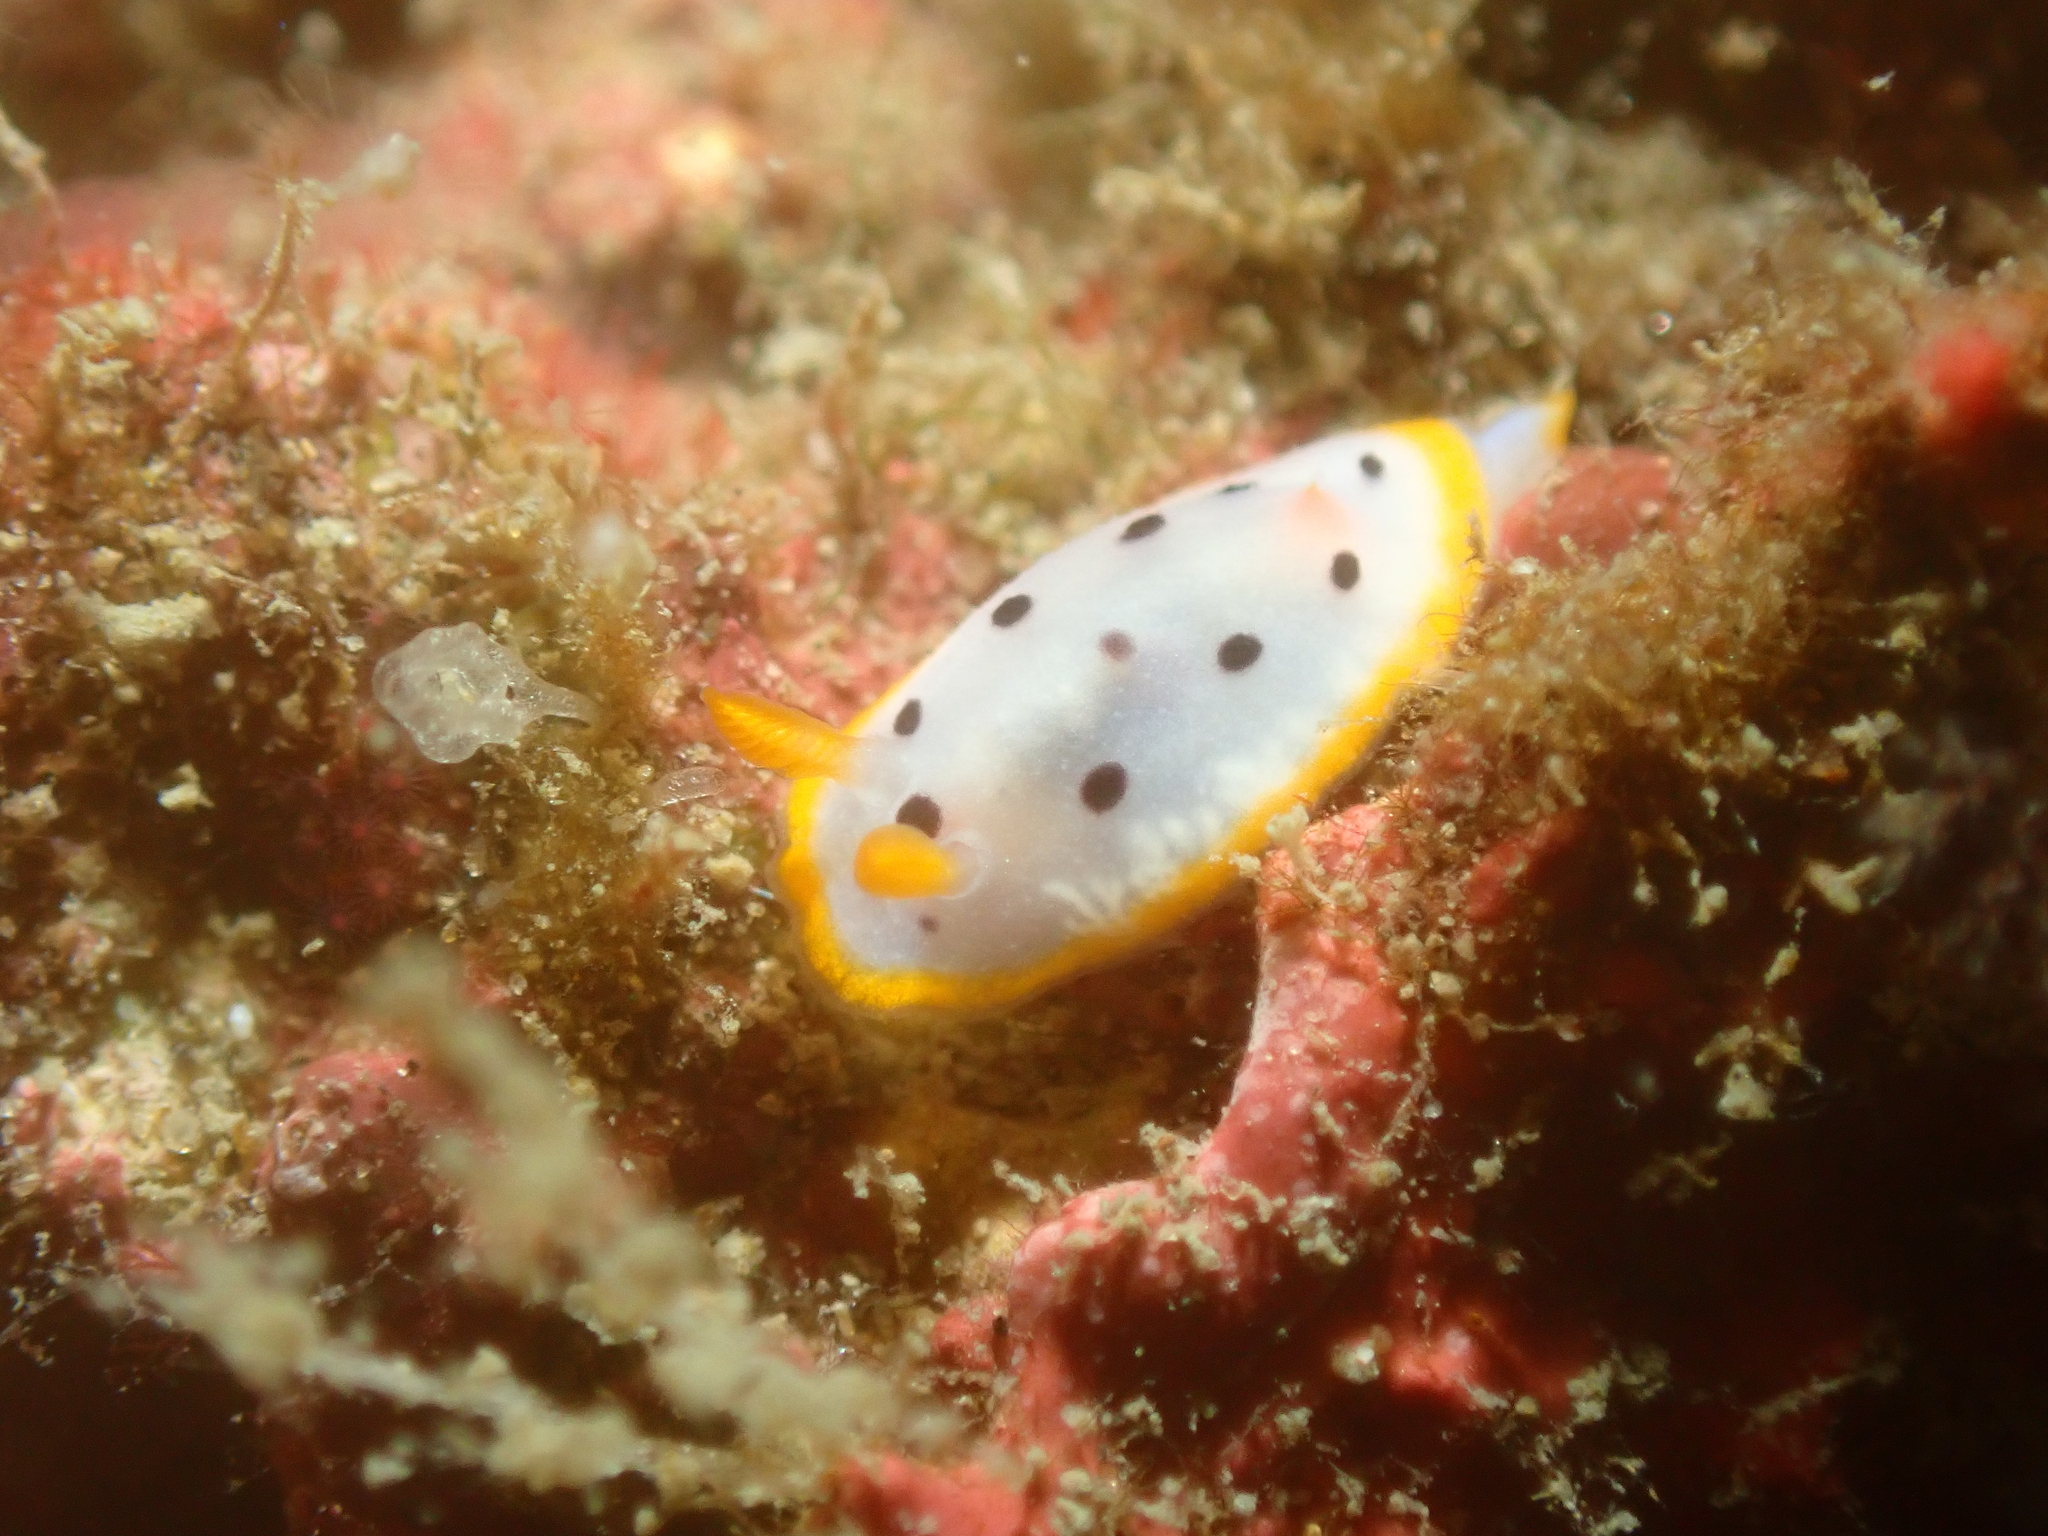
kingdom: Animalia
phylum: Mollusca
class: Gastropoda
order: Nudibranchia
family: Chromodorididae
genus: Chromodoris
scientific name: Chromodoris orientalis
